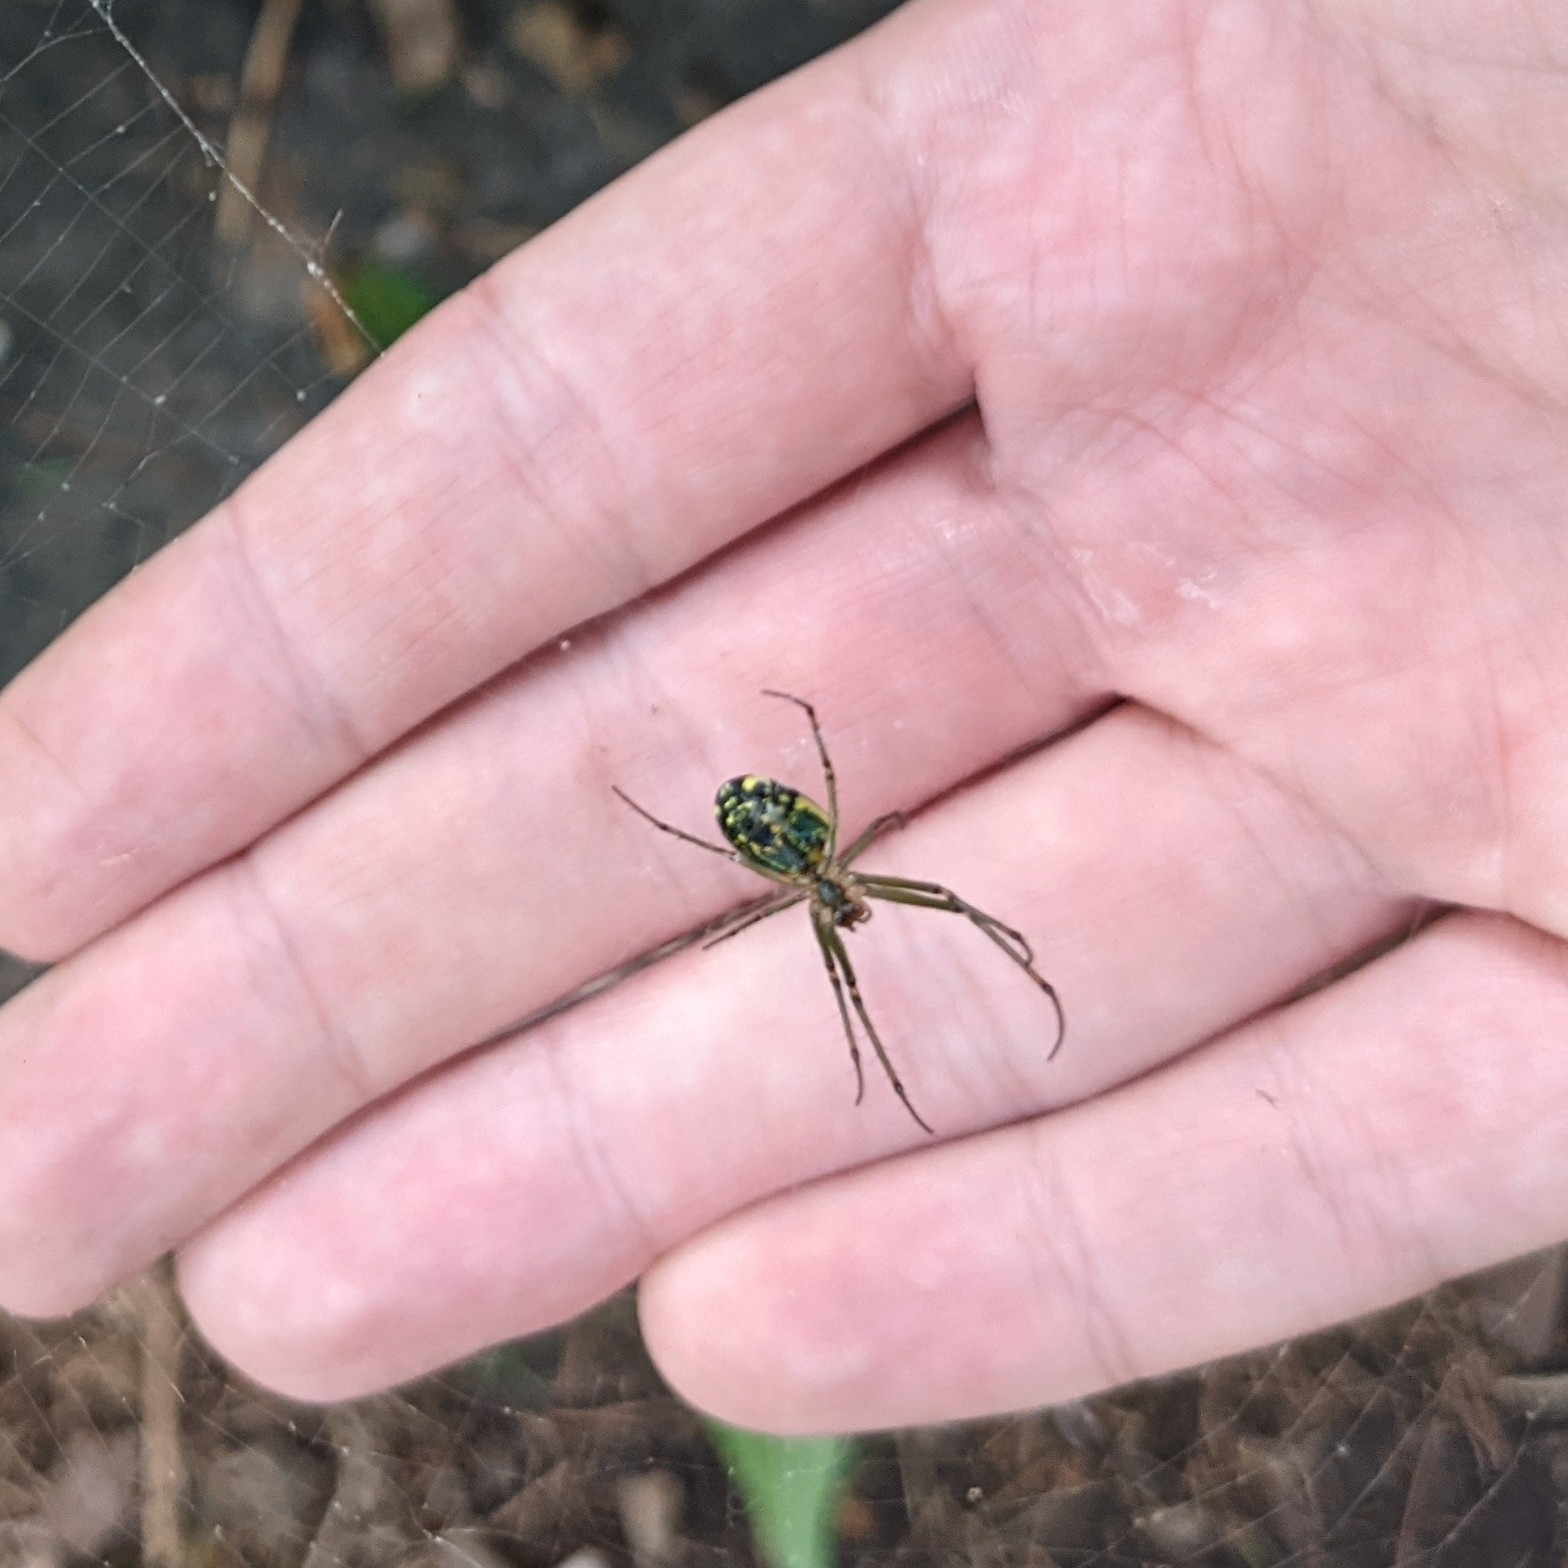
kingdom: Animalia
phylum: Arthropoda
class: Arachnida
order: Araneae
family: Tetragnathidae
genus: Leucauge
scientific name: Leucauge venusta
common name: Longjawed orb weavers
